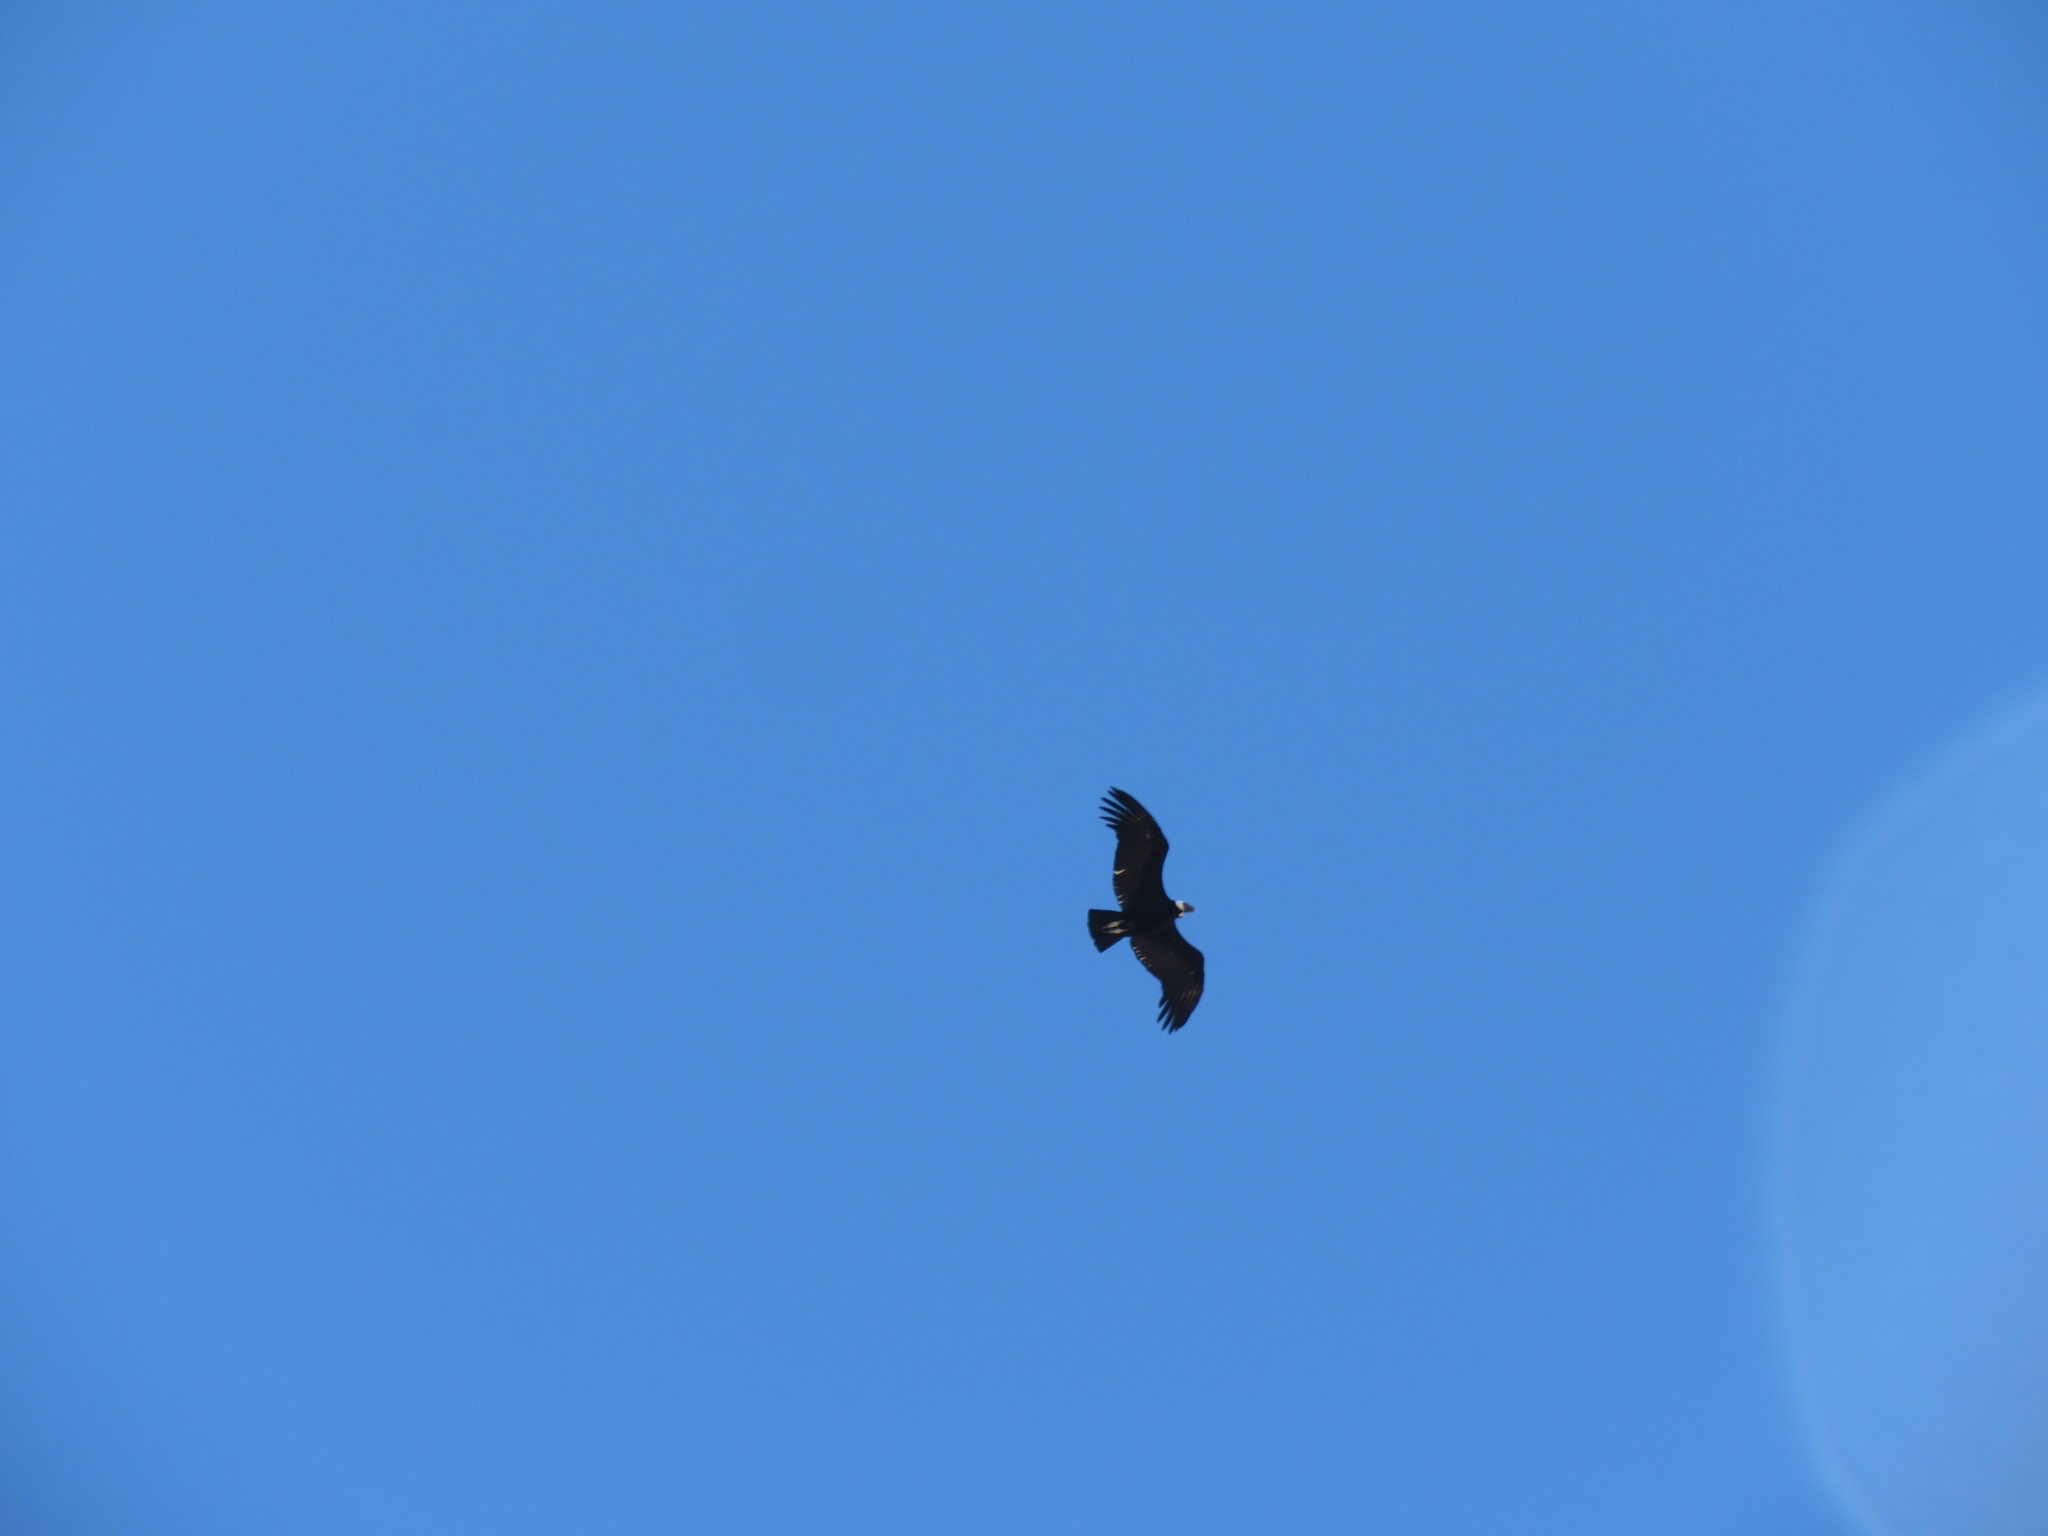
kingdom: Animalia
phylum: Chordata
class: Aves
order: Accipitriformes
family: Cathartidae
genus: Vultur
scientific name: Vultur gryphus
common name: Andean condor
